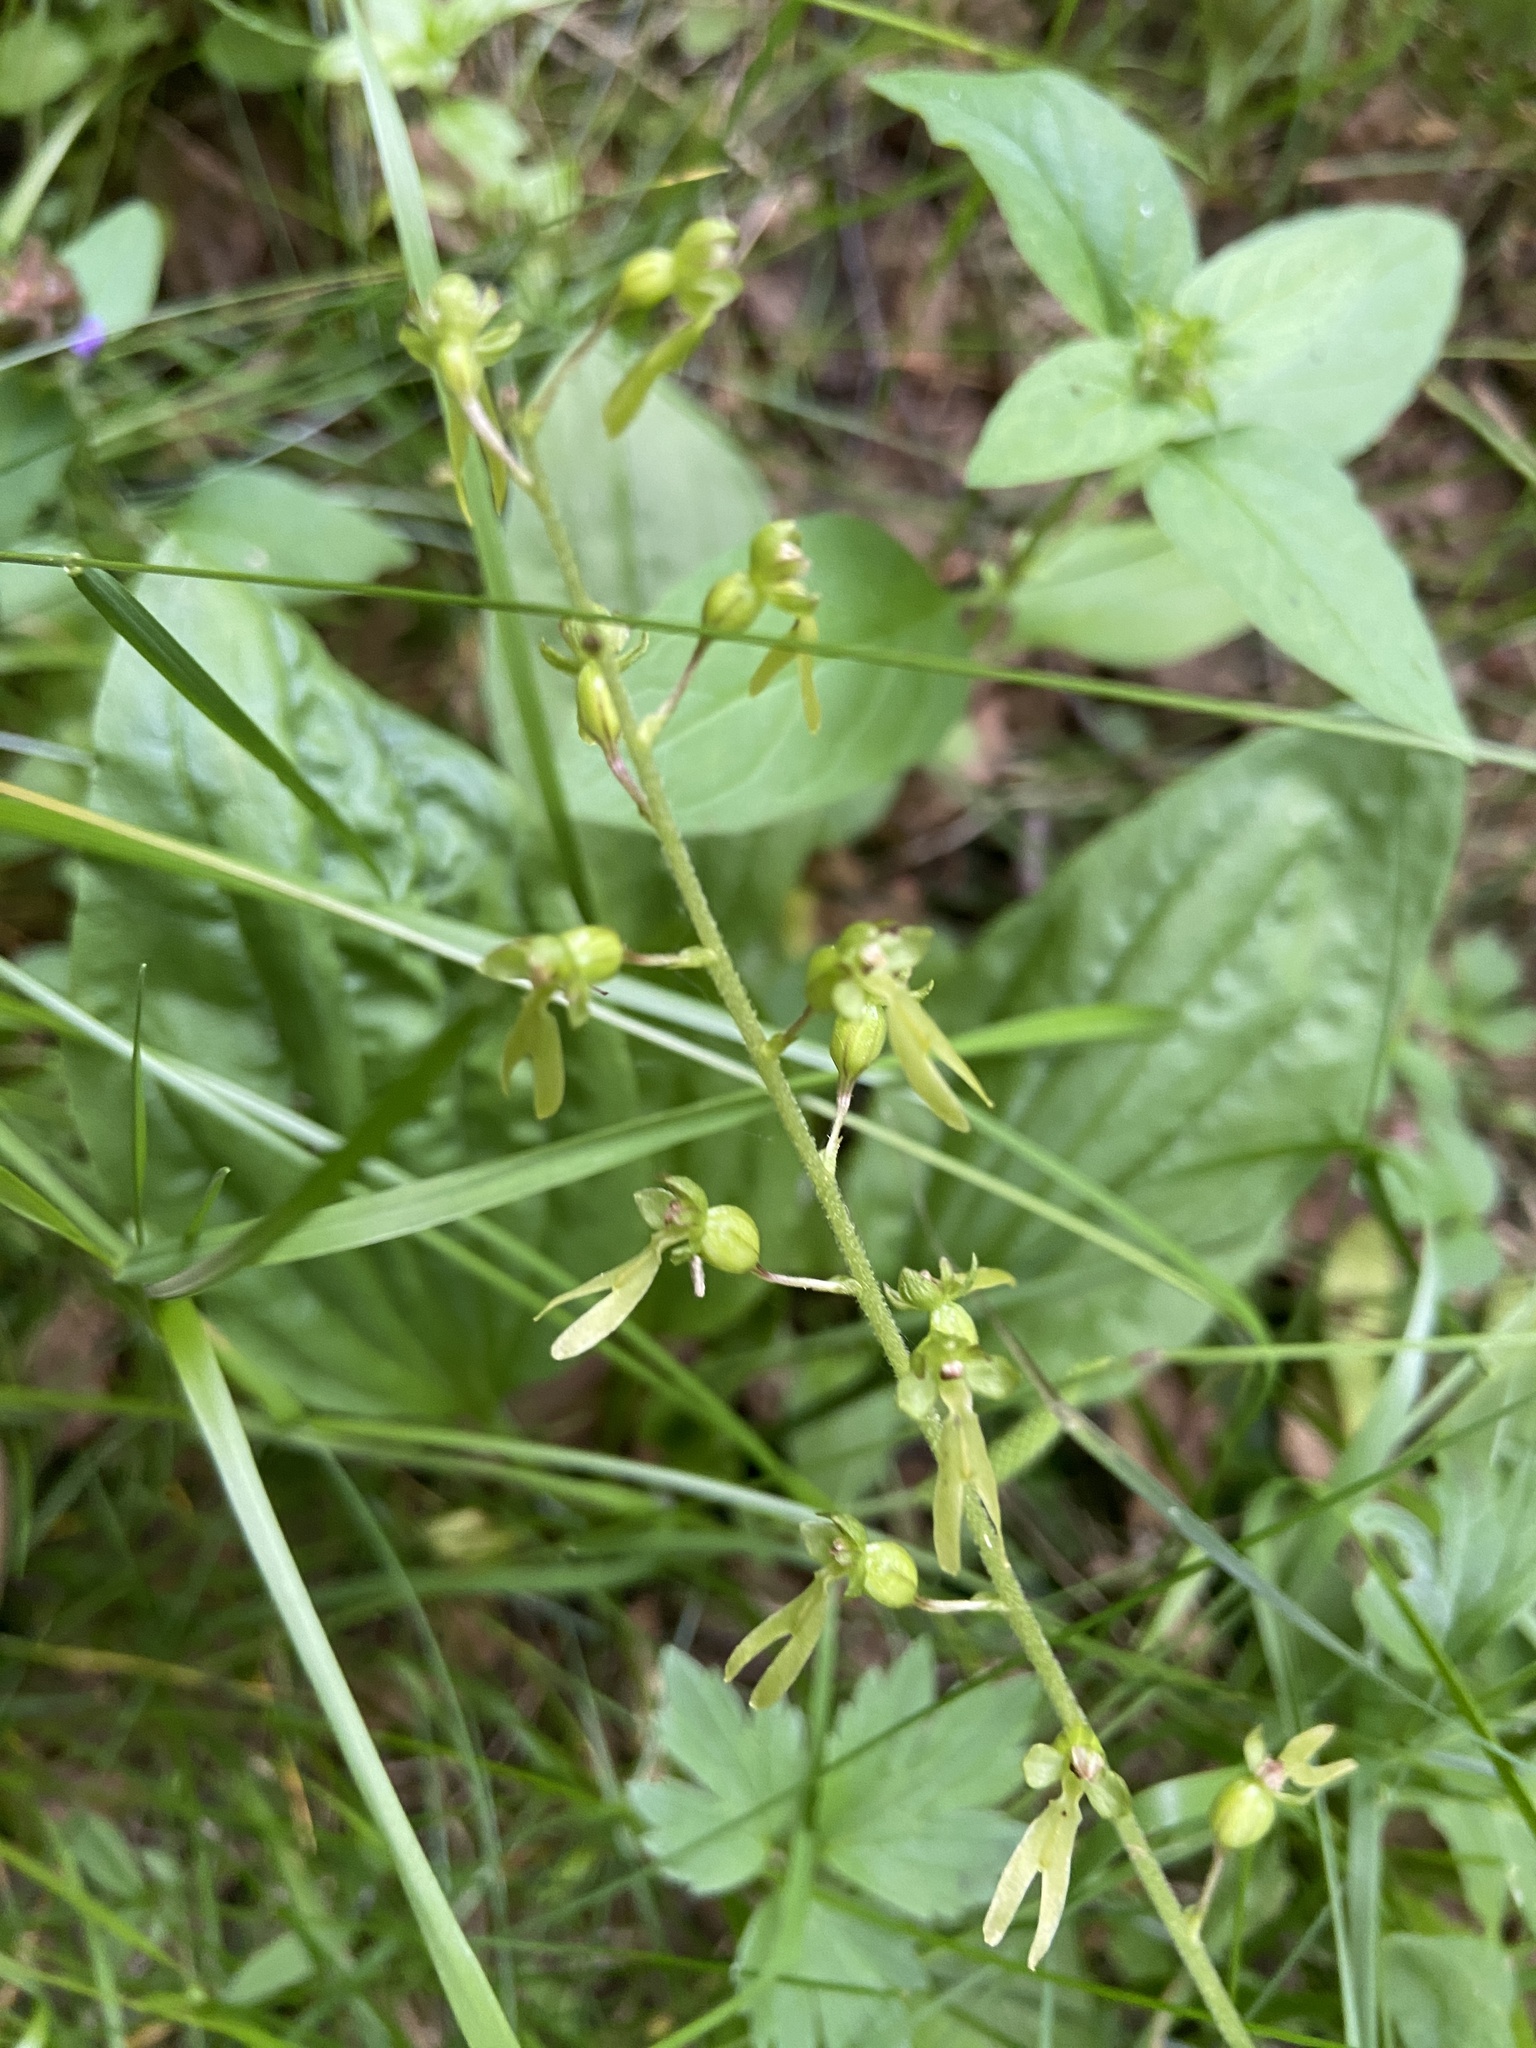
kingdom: Plantae
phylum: Tracheophyta
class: Liliopsida
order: Asparagales
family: Orchidaceae
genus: Neottia
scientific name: Neottia ovata
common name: Common twayblade
